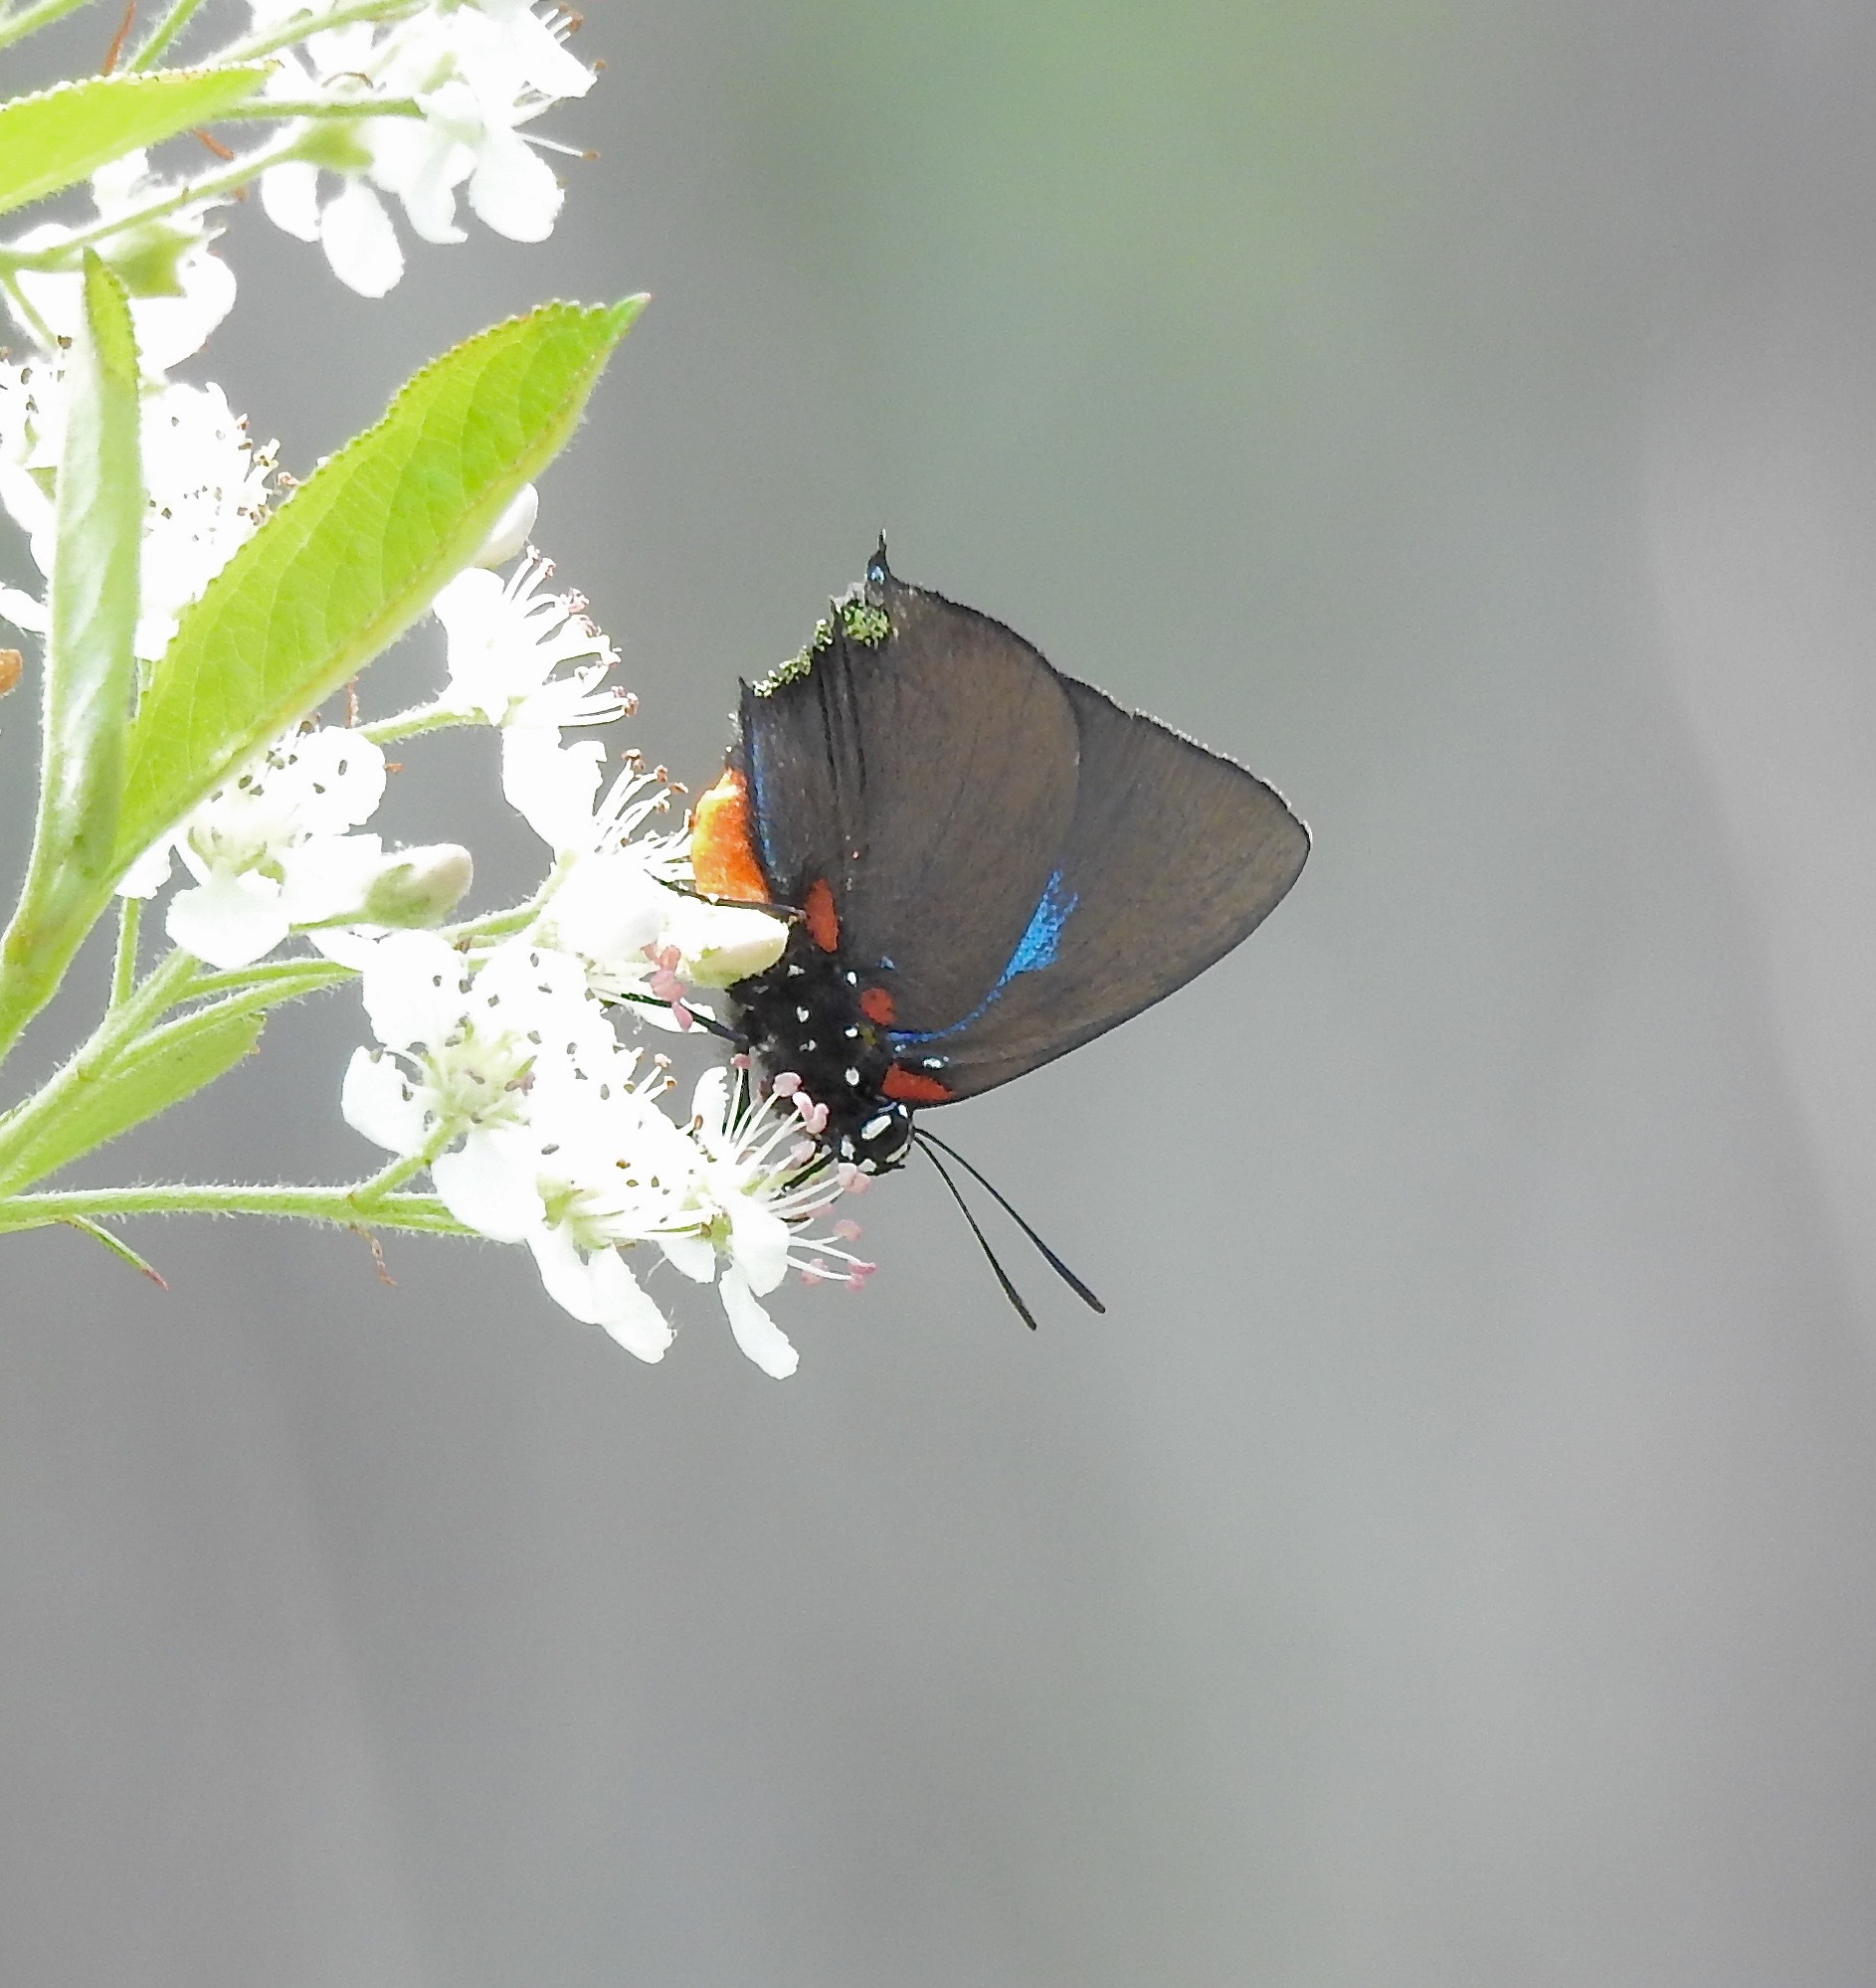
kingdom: Animalia
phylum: Arthropoda
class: Insecta
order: Lepidoptera
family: Lycaenidae
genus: Atlides
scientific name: Atlides halesus
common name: Great purple hairstreak
